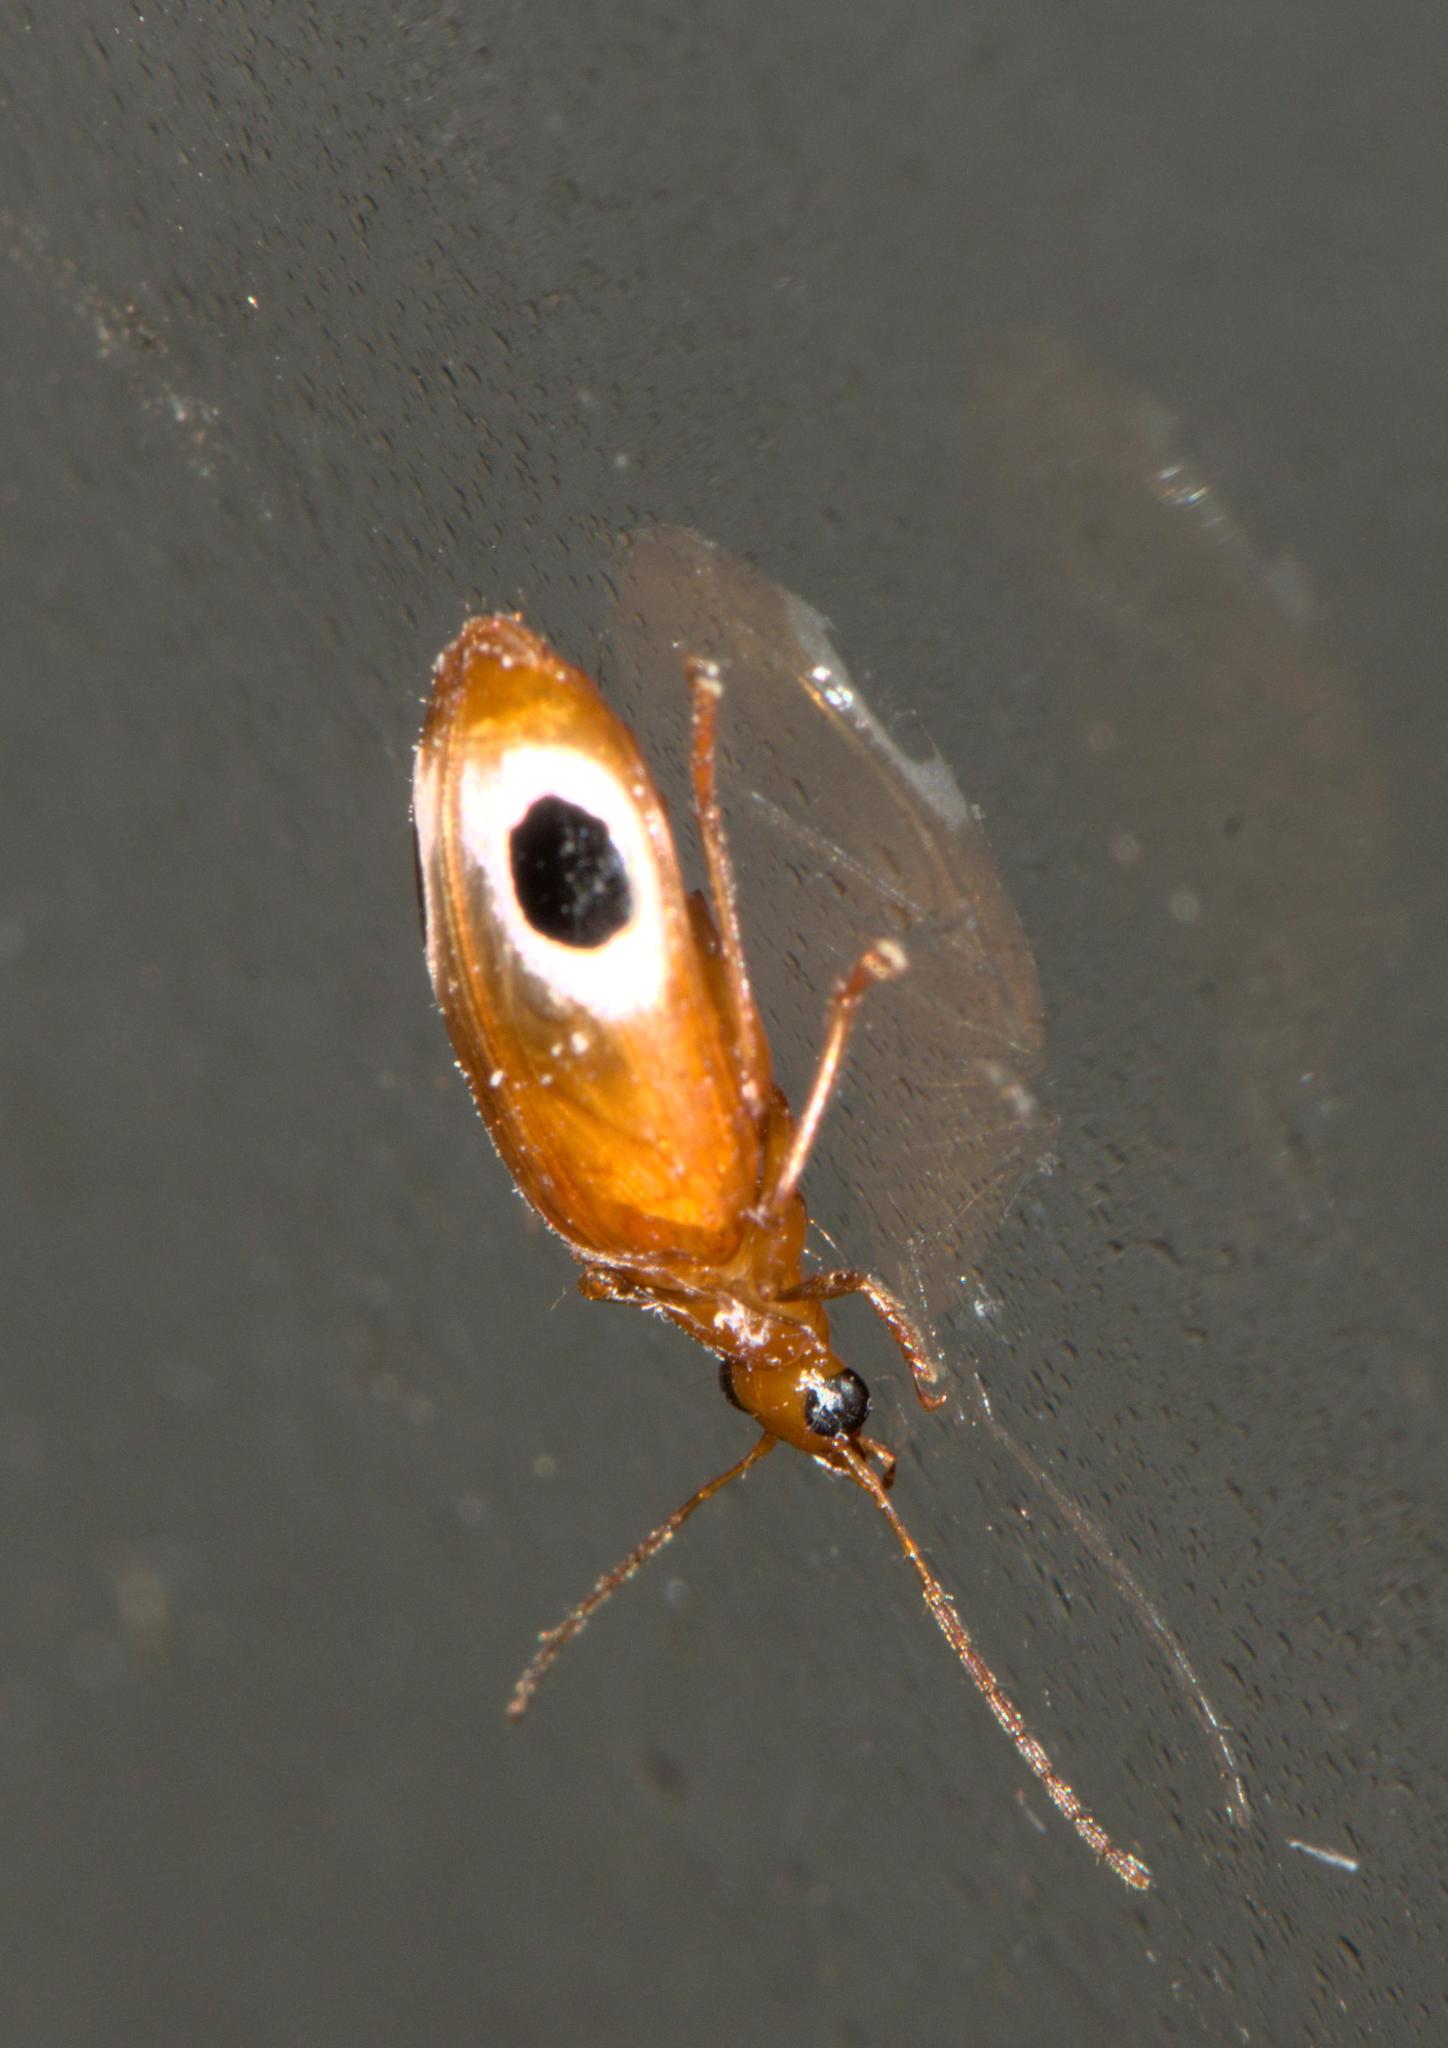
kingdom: Animalia
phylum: Arthropoda
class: Insecta
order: Coleoptera
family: Carabidae
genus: Lebidia
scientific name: Lebidia bioculata
